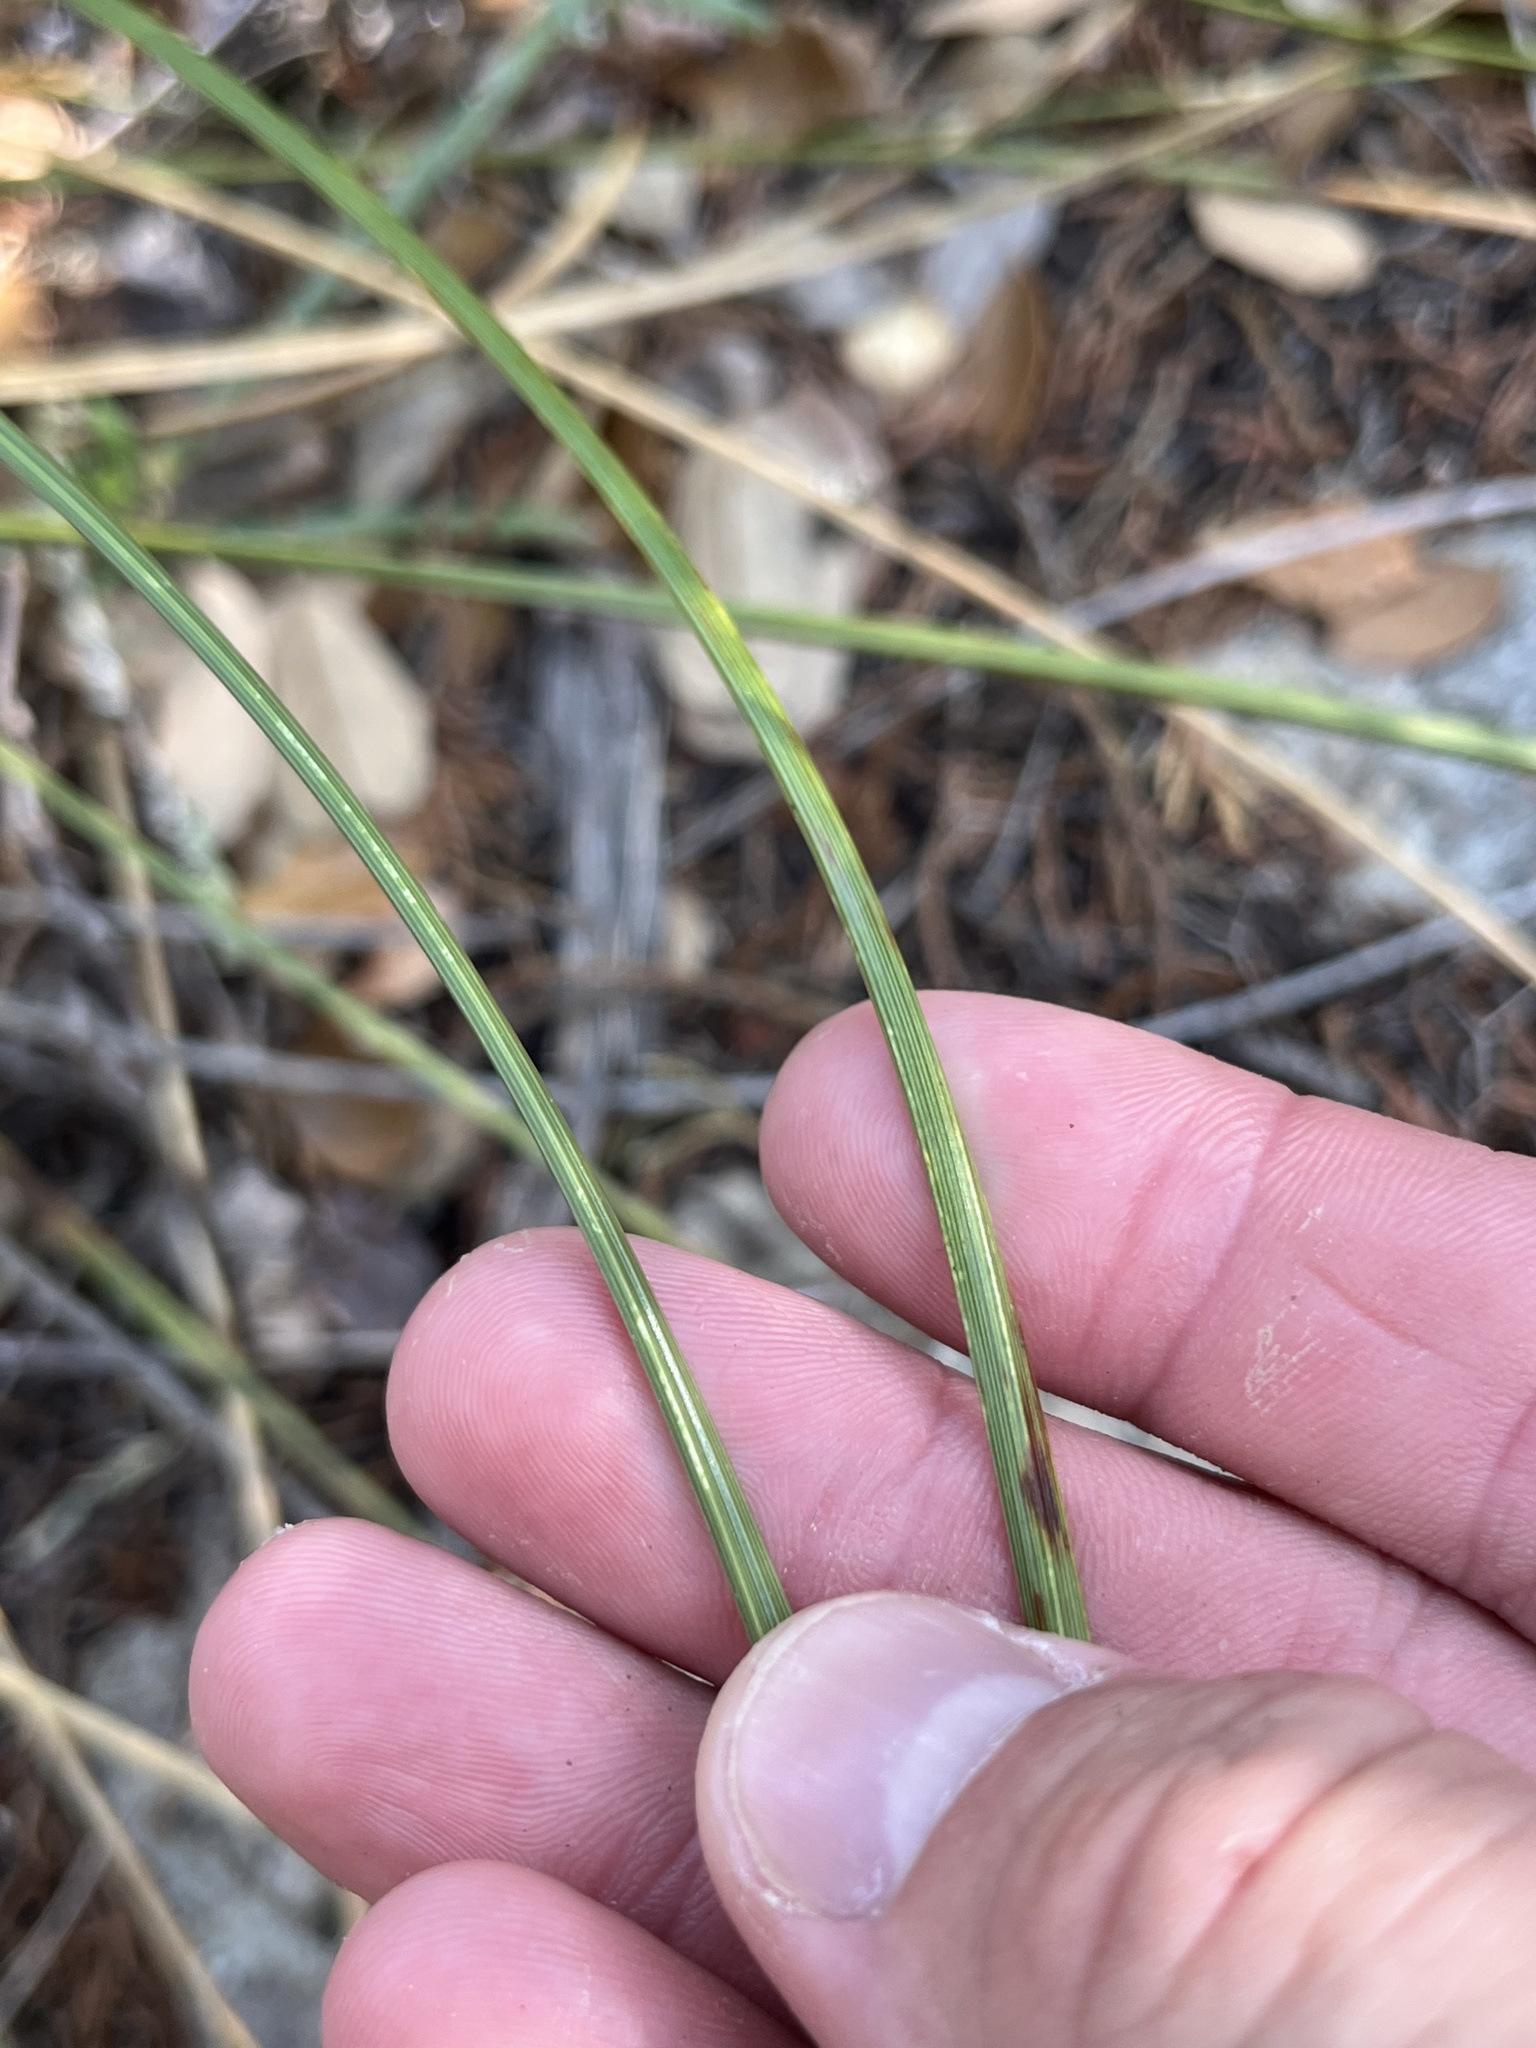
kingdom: Plantae
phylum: Tracheophyta
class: Liliopsida
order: Asparagales
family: Asparagaceae
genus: Nolina
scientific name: Nolina texana
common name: Texas sacahuiste
